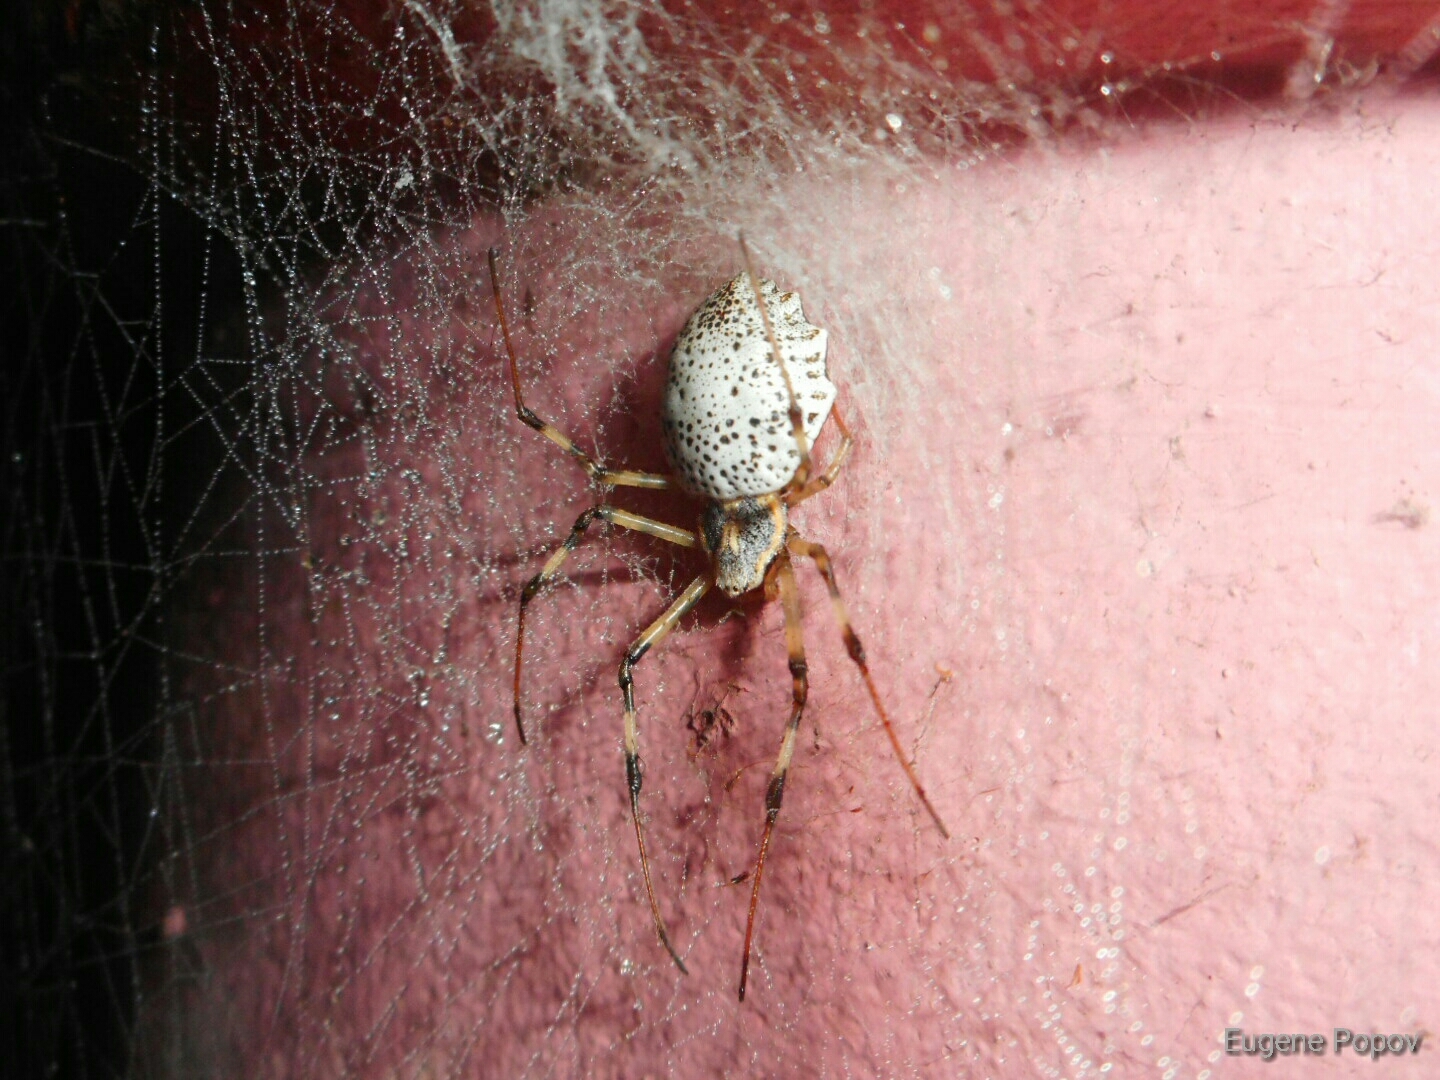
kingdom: Animalia
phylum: Arthropoda
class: Arachnida
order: Araneae
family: Araneidae
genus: Herennia
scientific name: Herennia multipuncta
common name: Spotted coin spider
